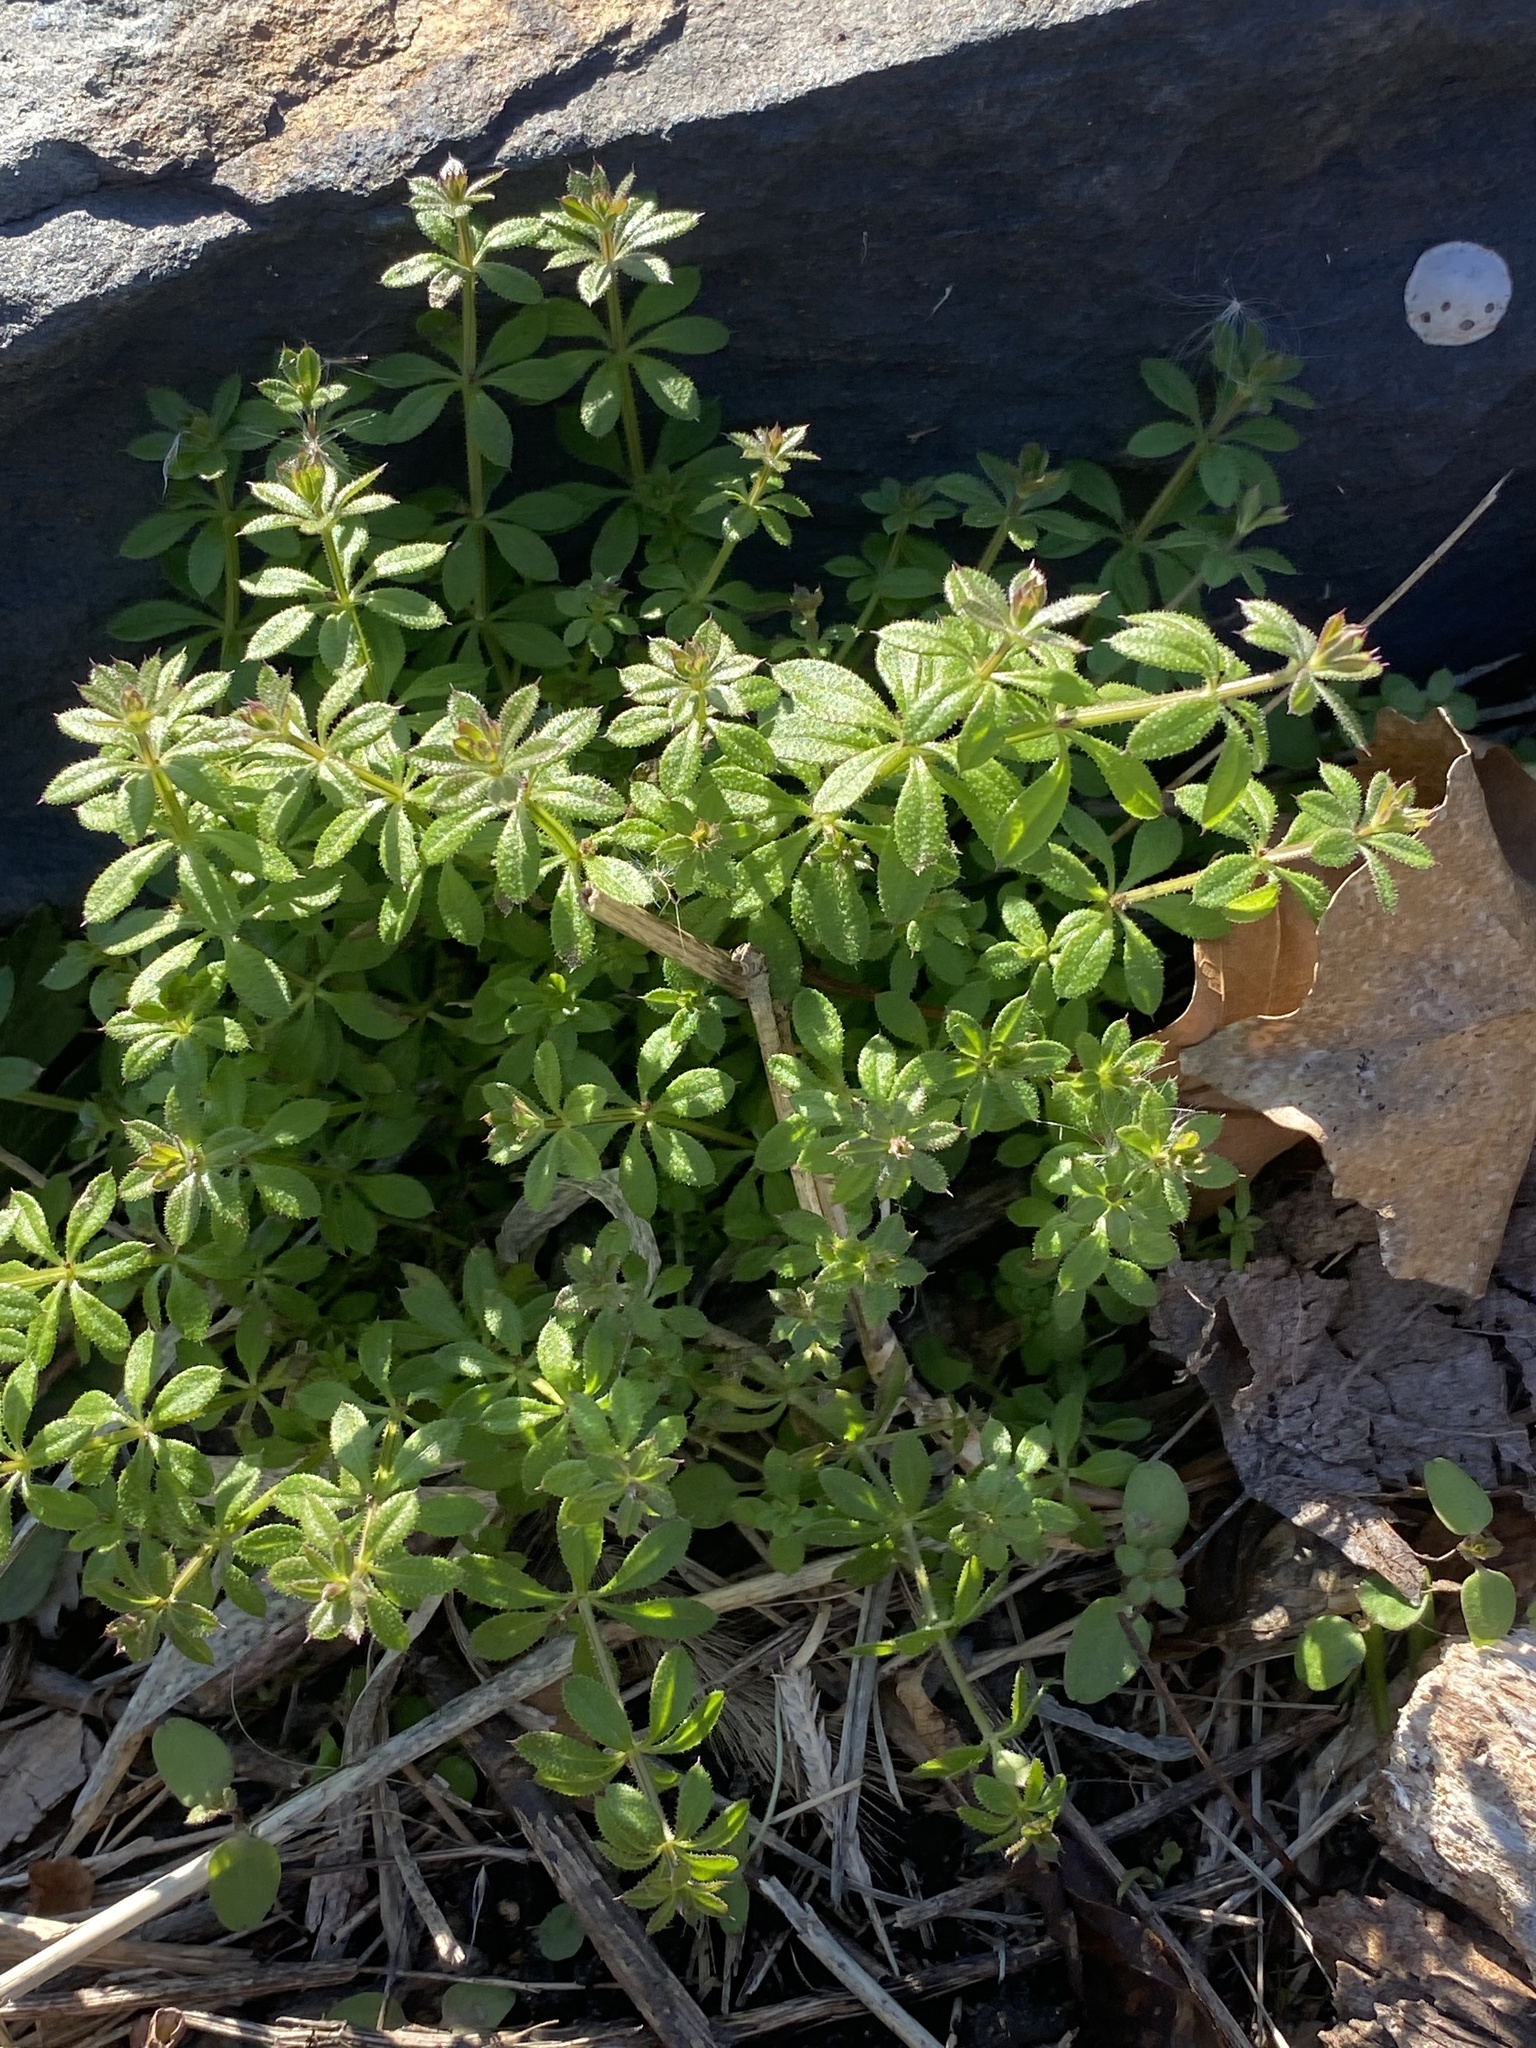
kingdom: Plantae
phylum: Tracheophyta
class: Magnoliopsida
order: Gentianales
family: Rubiaceae
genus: Galium
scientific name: Galium aparine
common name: Cleavers
